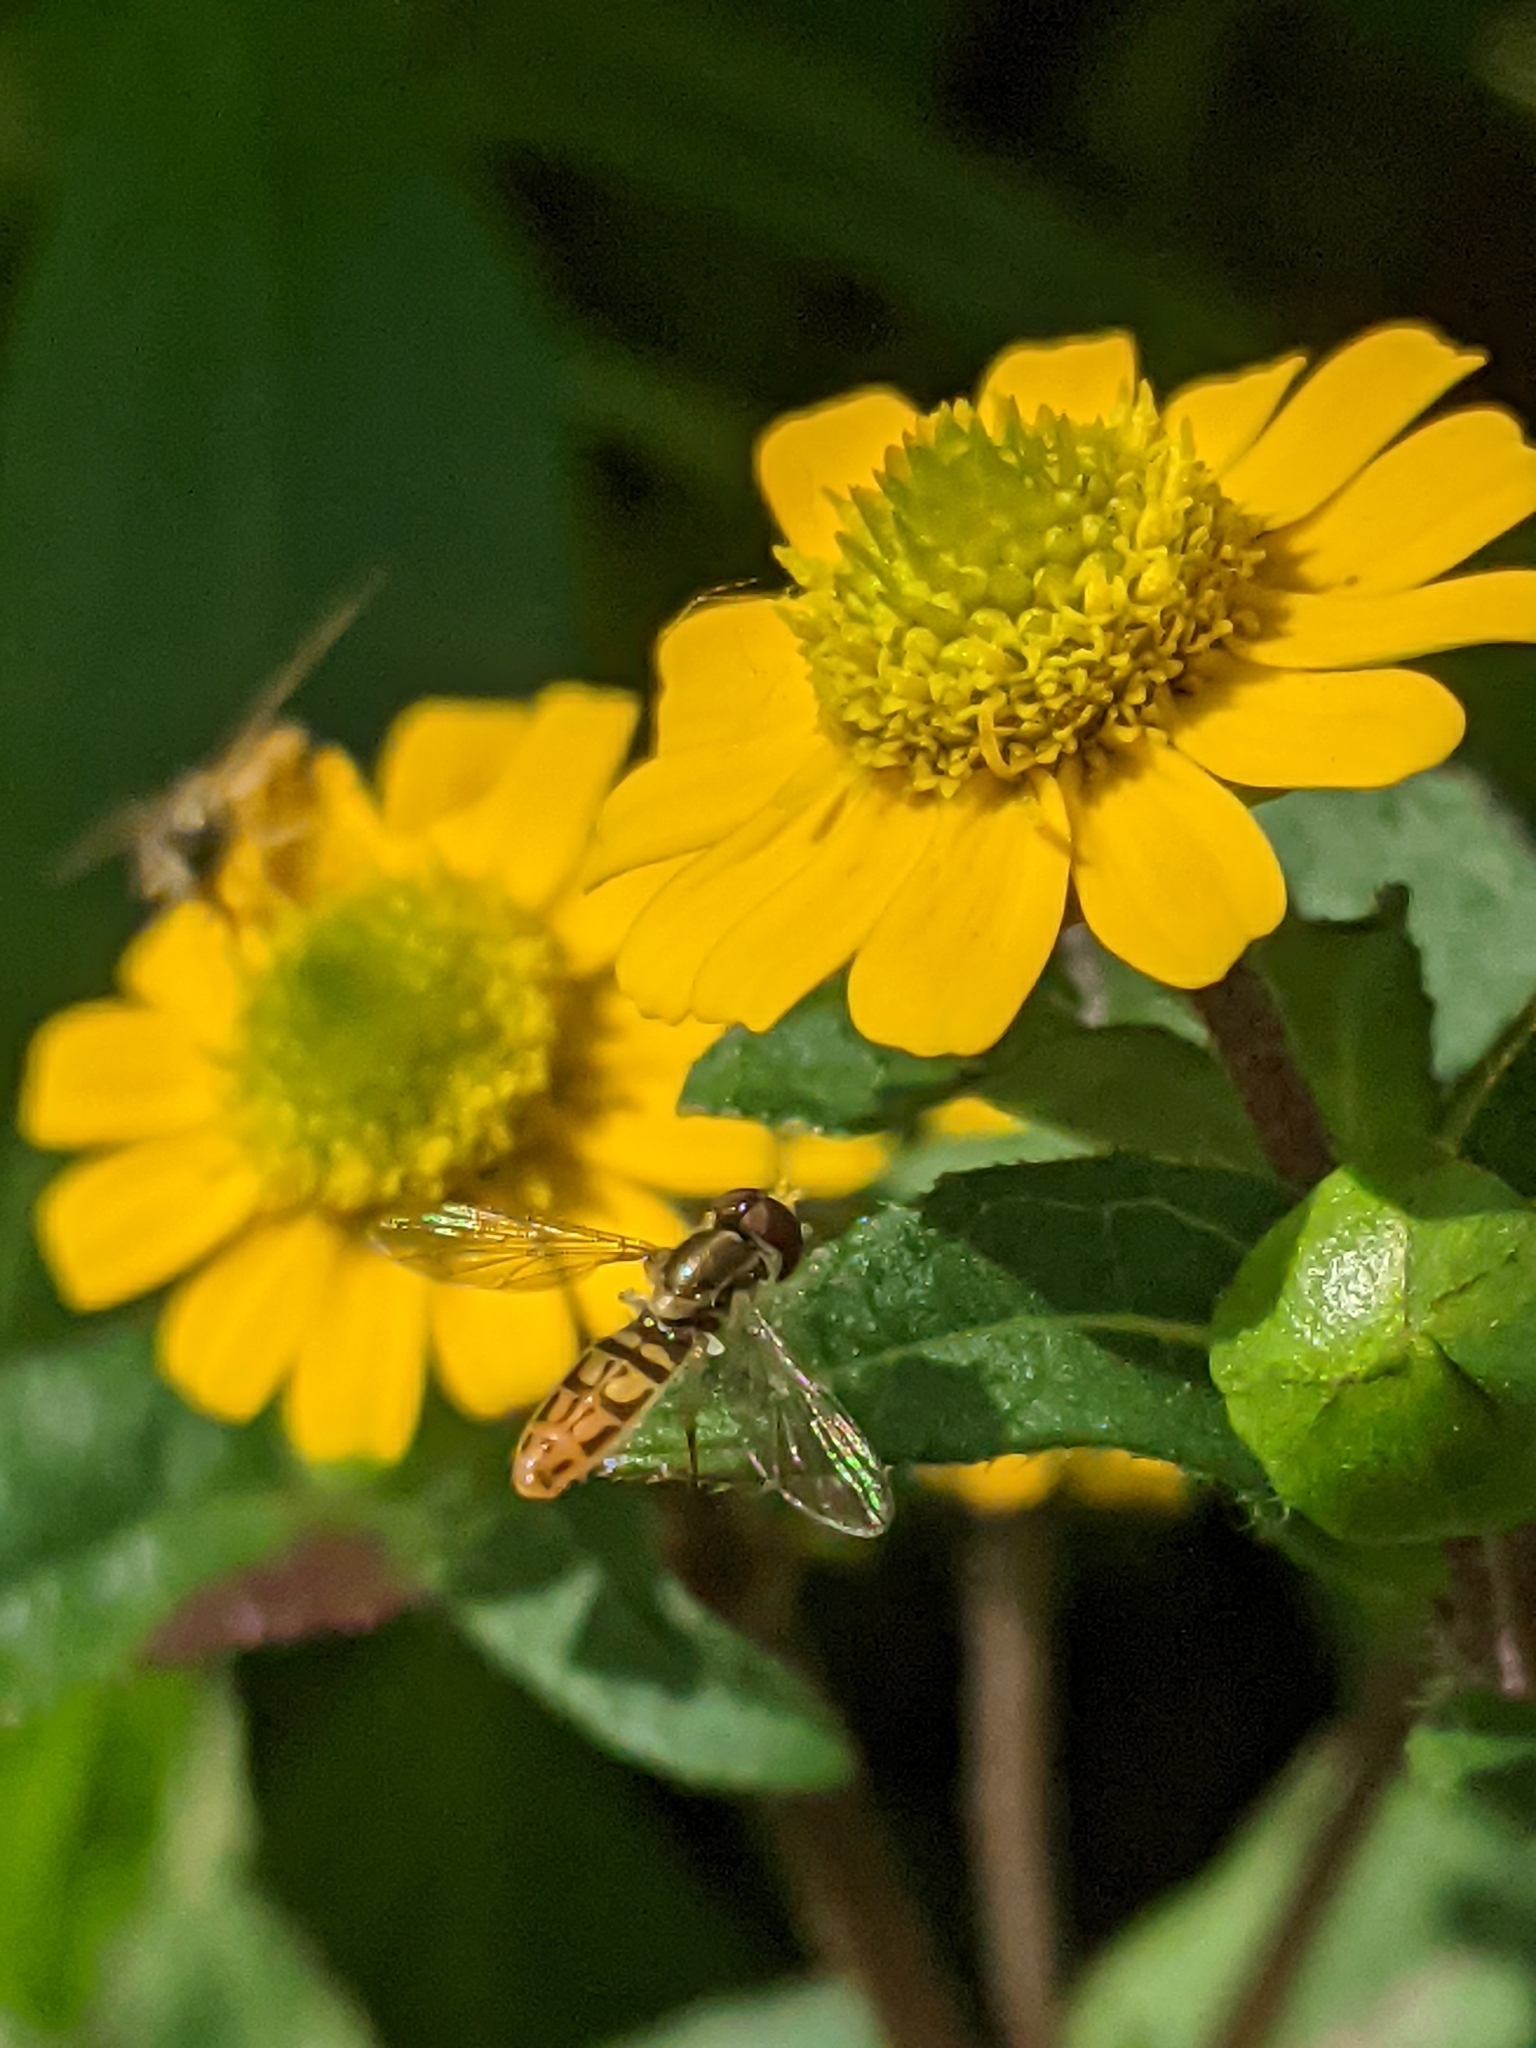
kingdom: Animalia
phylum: Arthropoda
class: Insecta
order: Diptera
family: Syrphidae
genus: Toxomerus
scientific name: Toxomerus marginatus
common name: Syrphid fly
